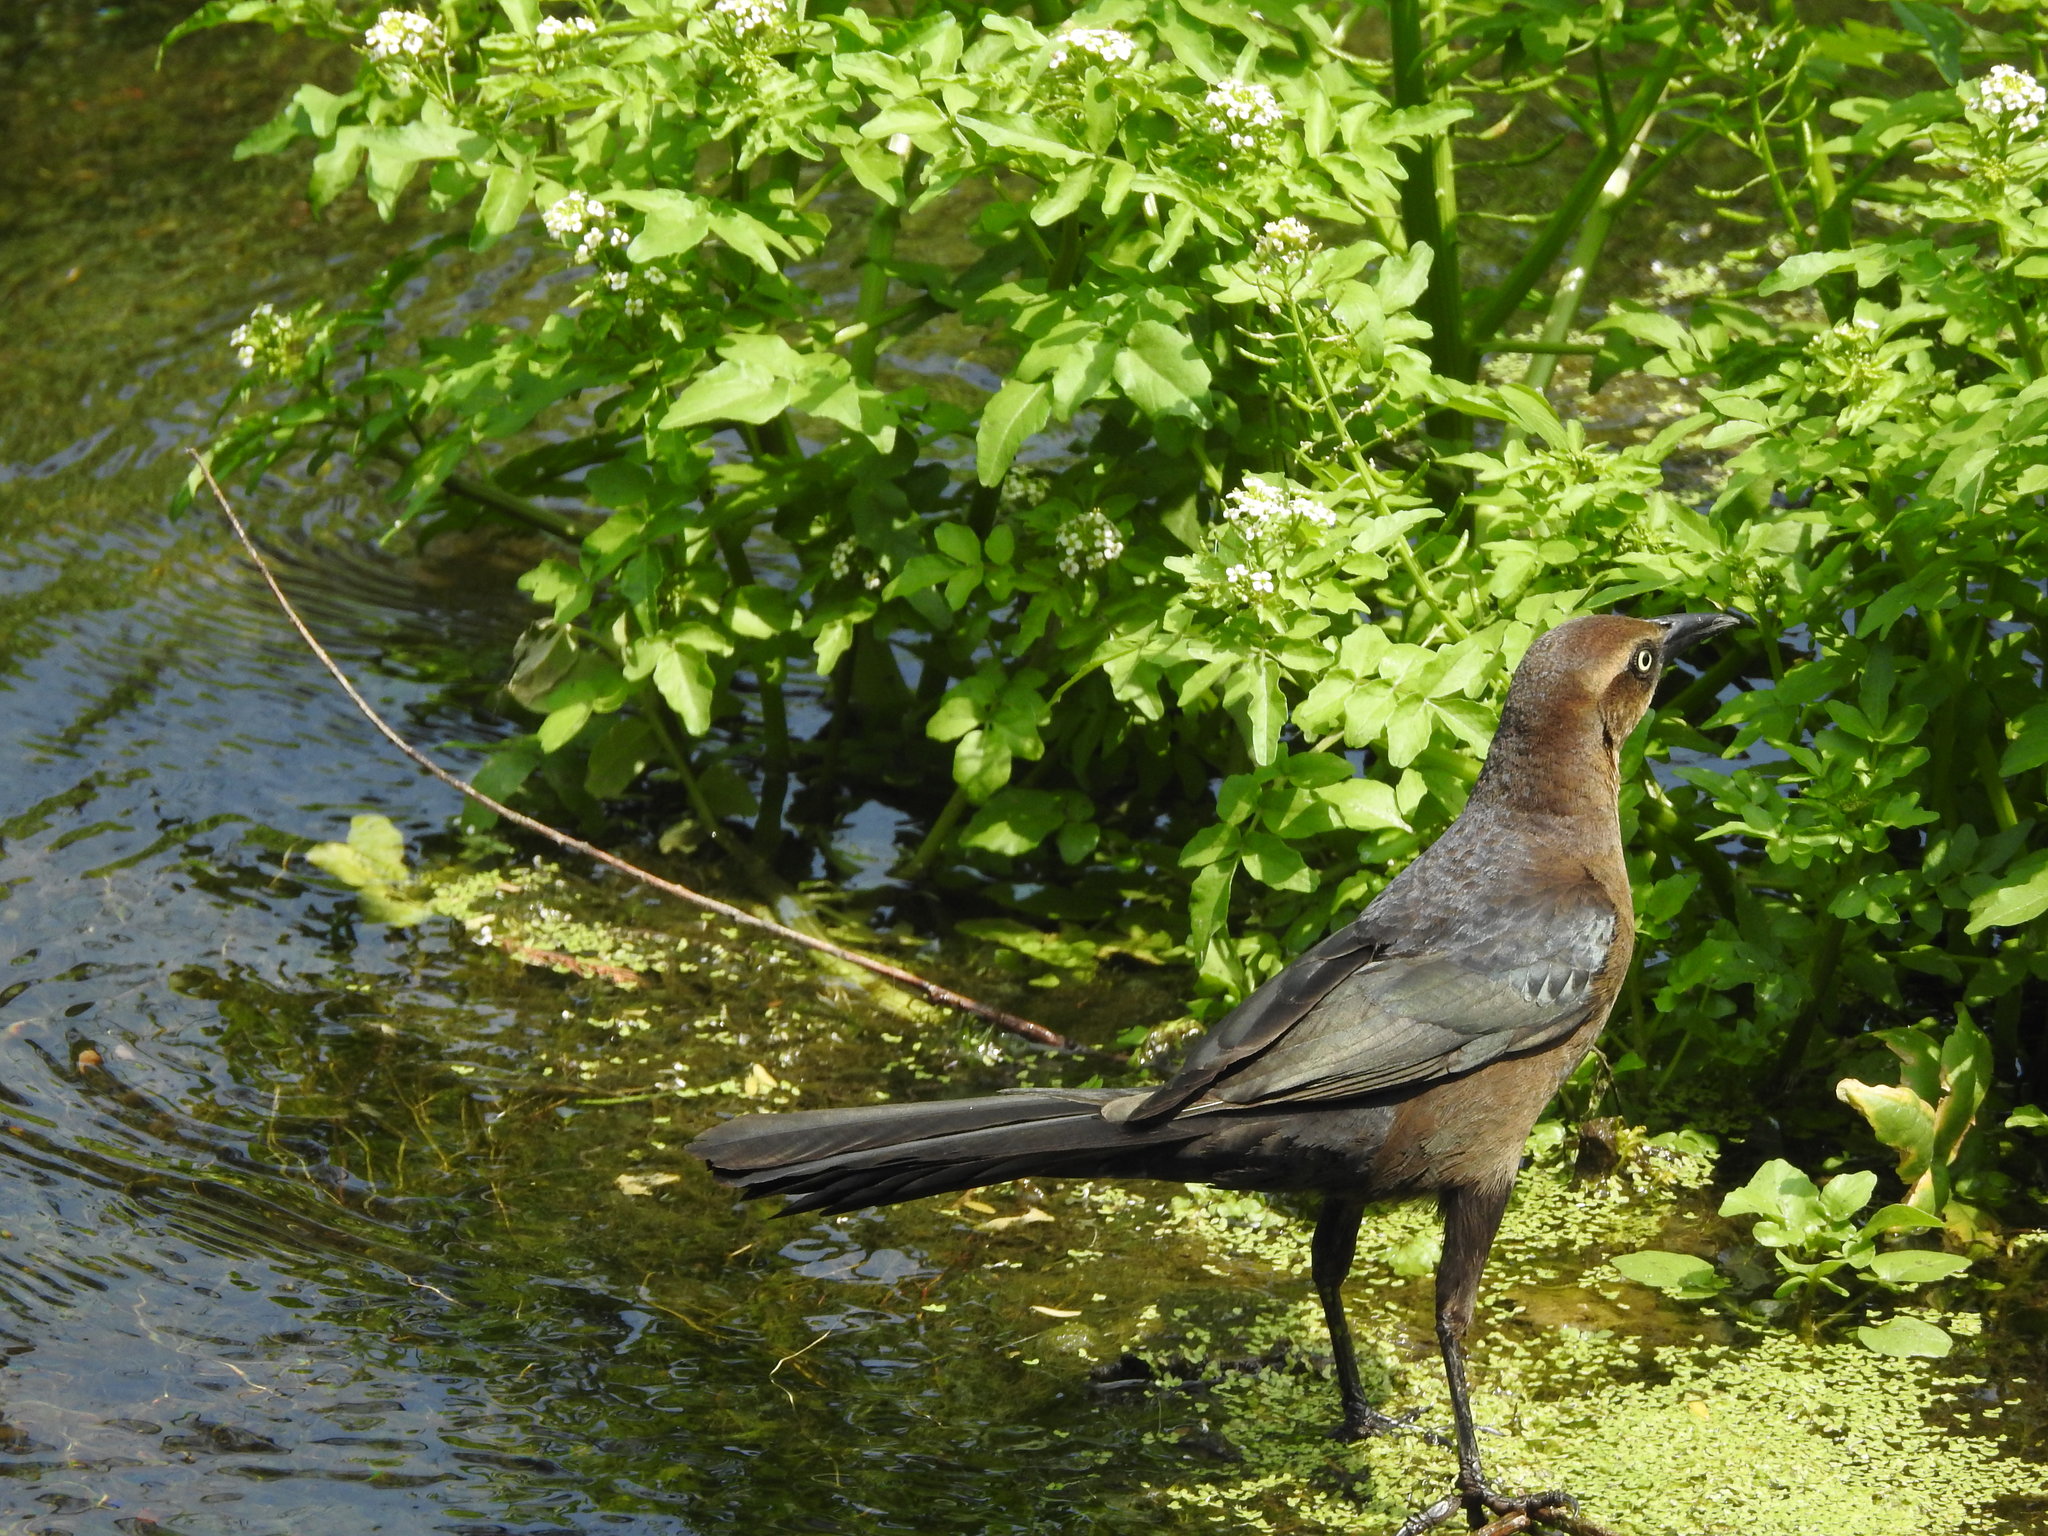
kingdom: Animalia
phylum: Chordata
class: Aves
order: Passeriformes
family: Icteridae
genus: Quiscalus
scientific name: Quiscalus mexicanus
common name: Great-tailed grackle
